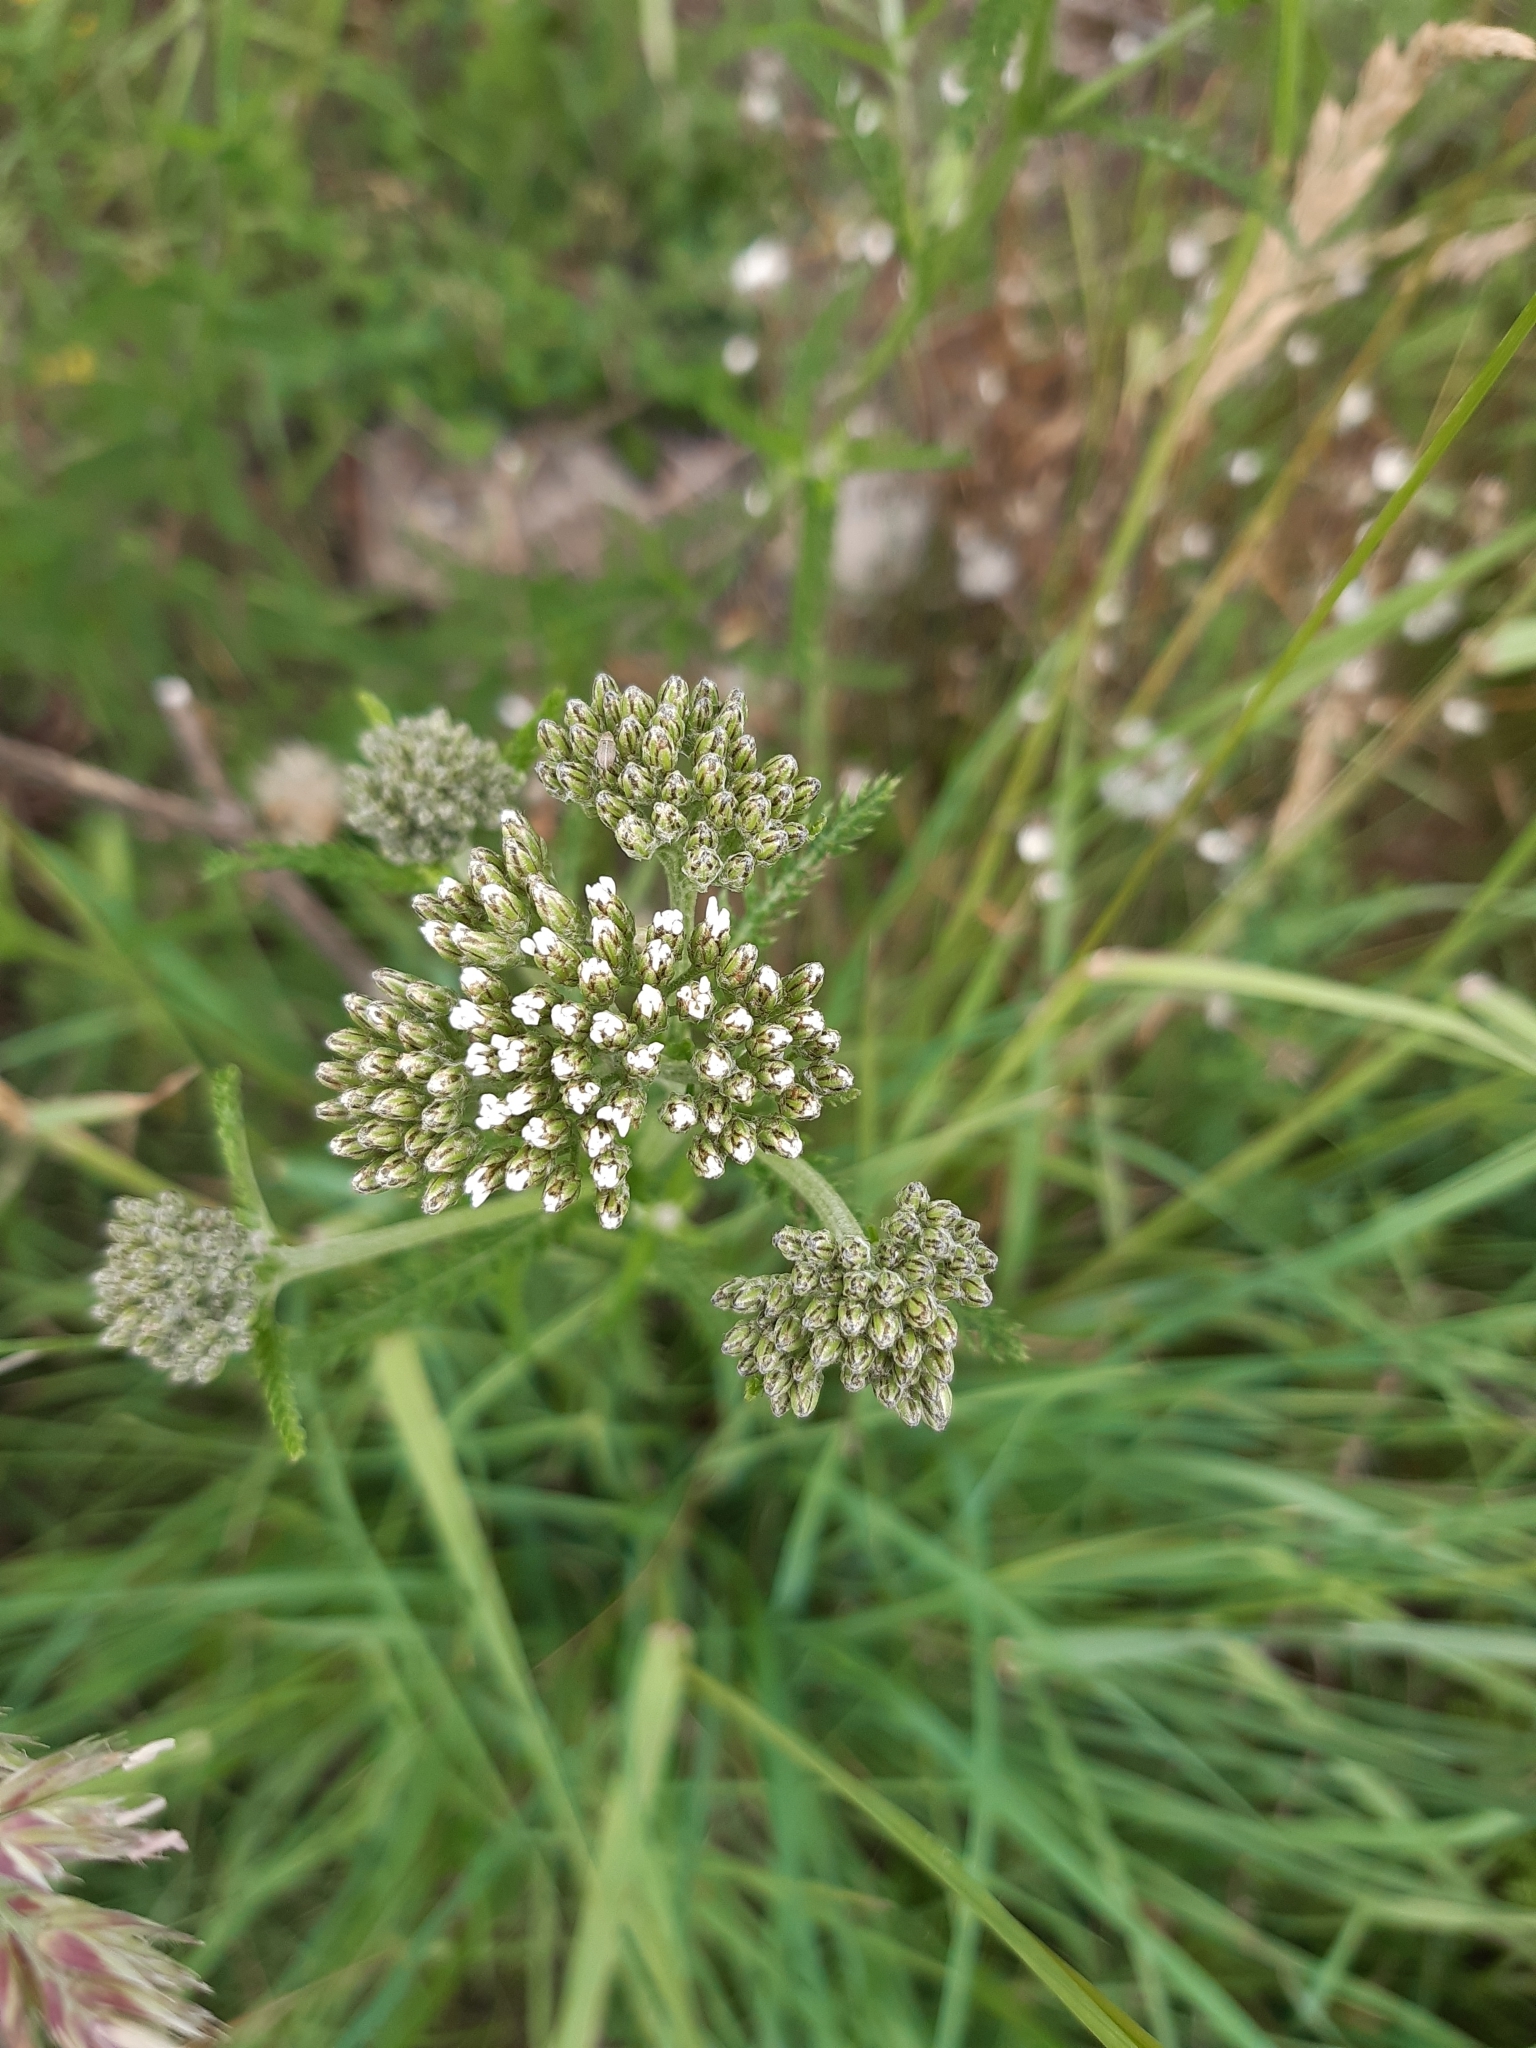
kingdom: Plantae
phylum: Tracheophyta
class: Magnoliopsida
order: Asterales
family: Asteraceae
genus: Achillea
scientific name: Achillea millefolium
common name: Yarrow
